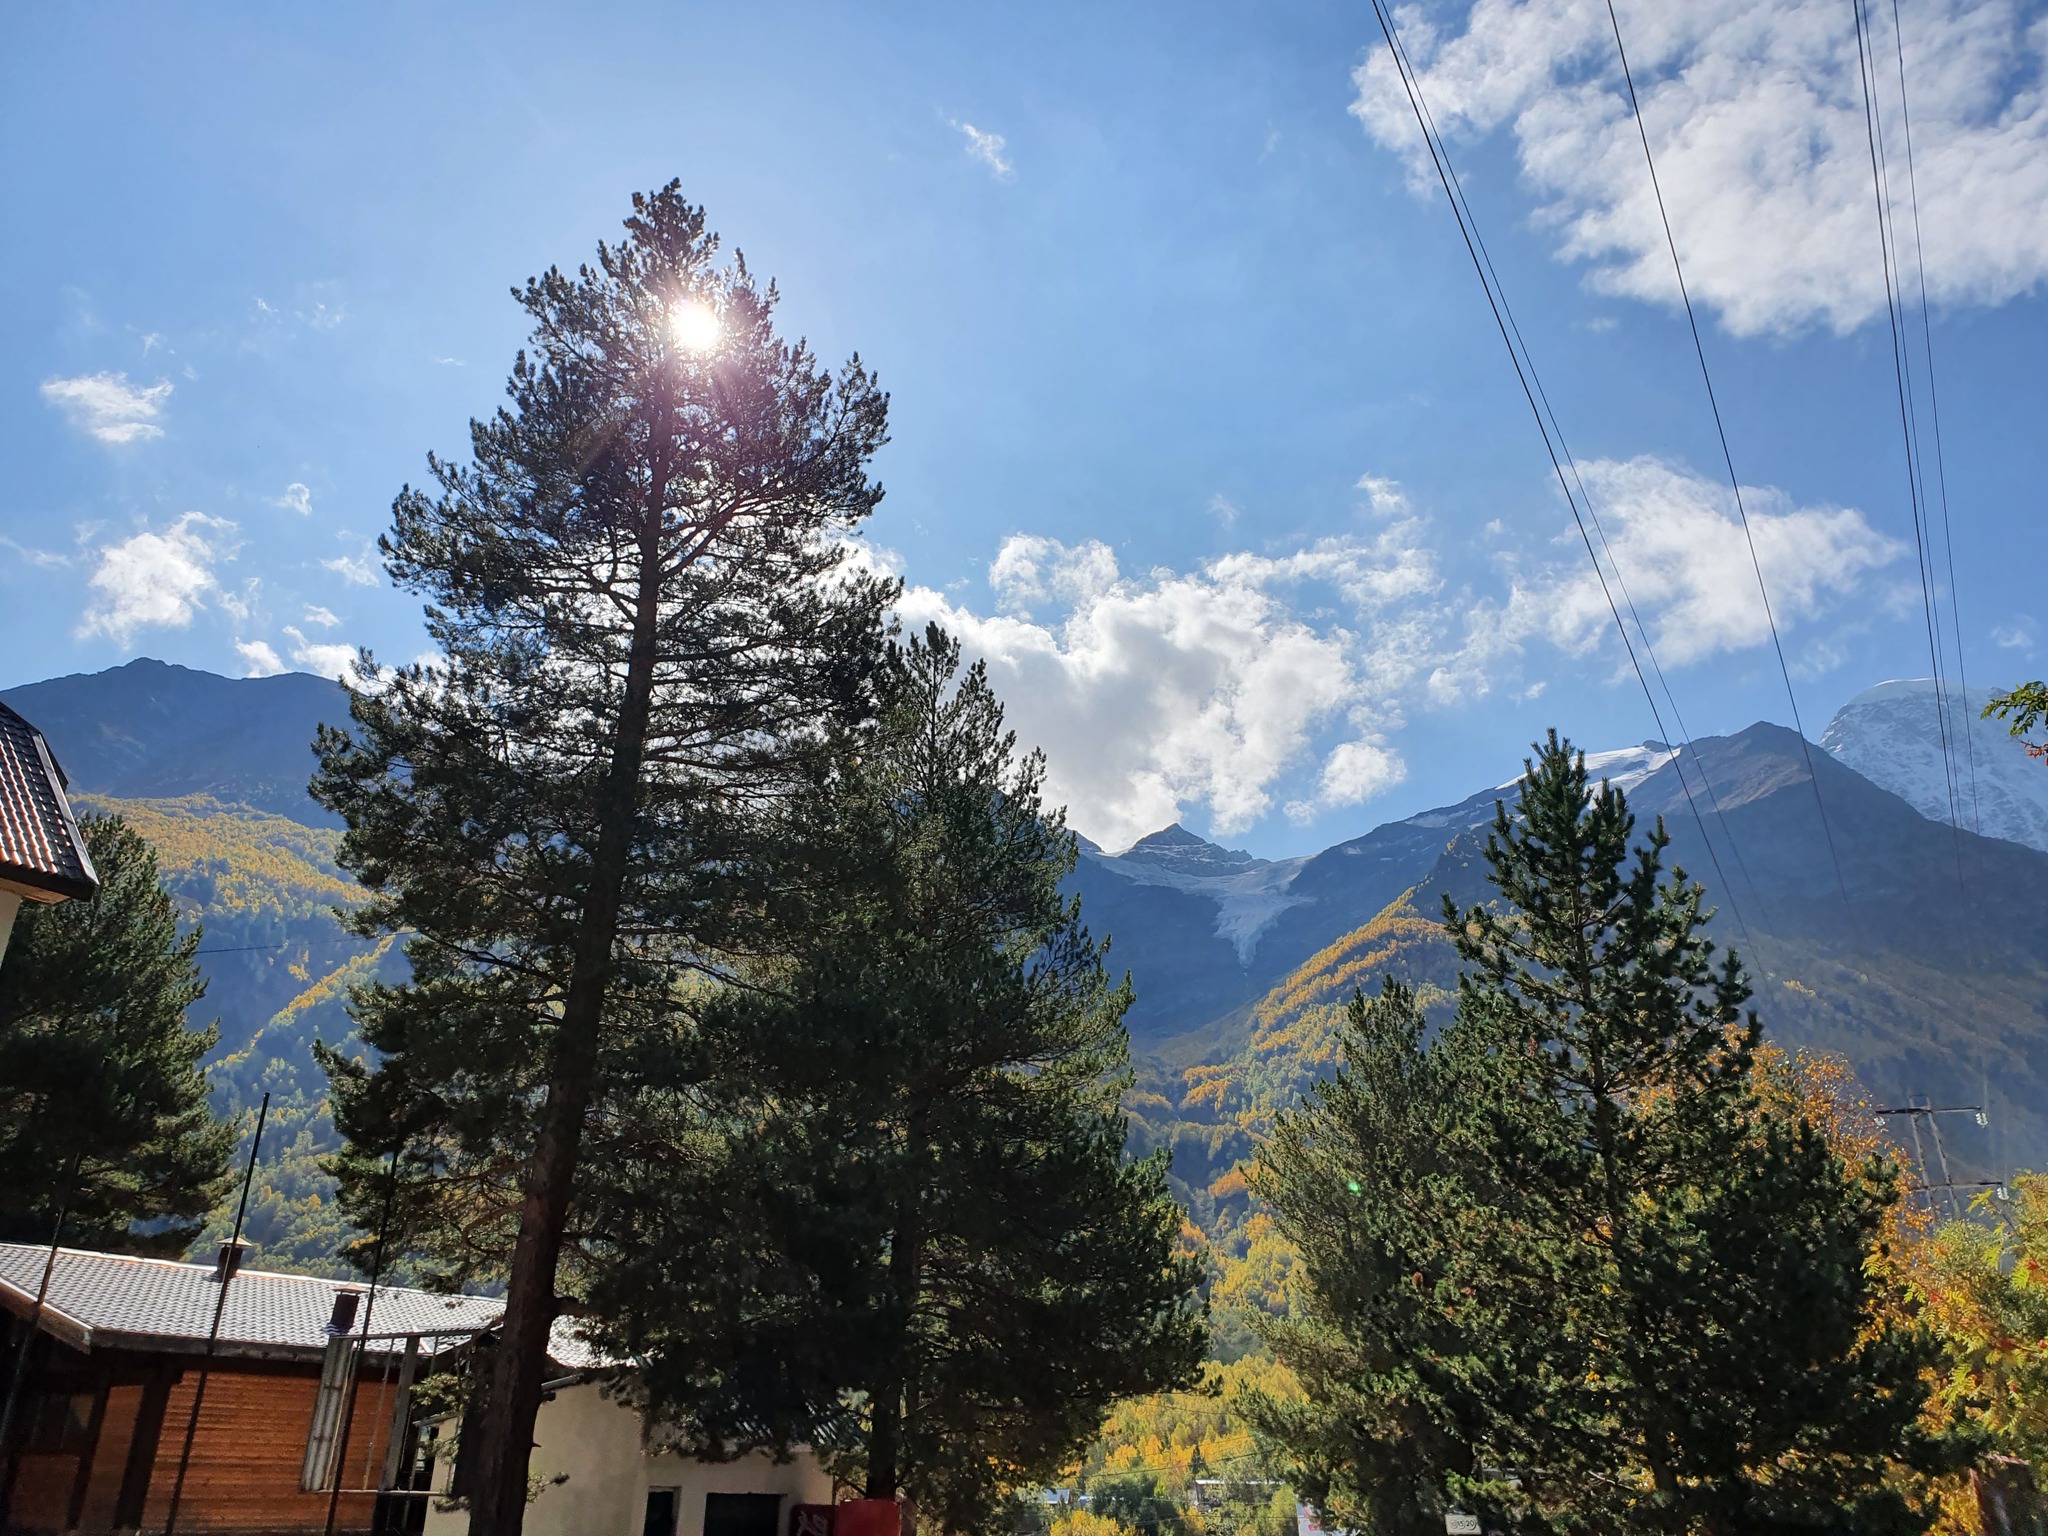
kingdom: Plantae
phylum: Tracheophyta
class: Pinopsida
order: Pinales
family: Pinaceae
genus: Pinus
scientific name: Pinus sylvestris
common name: Scots pine
